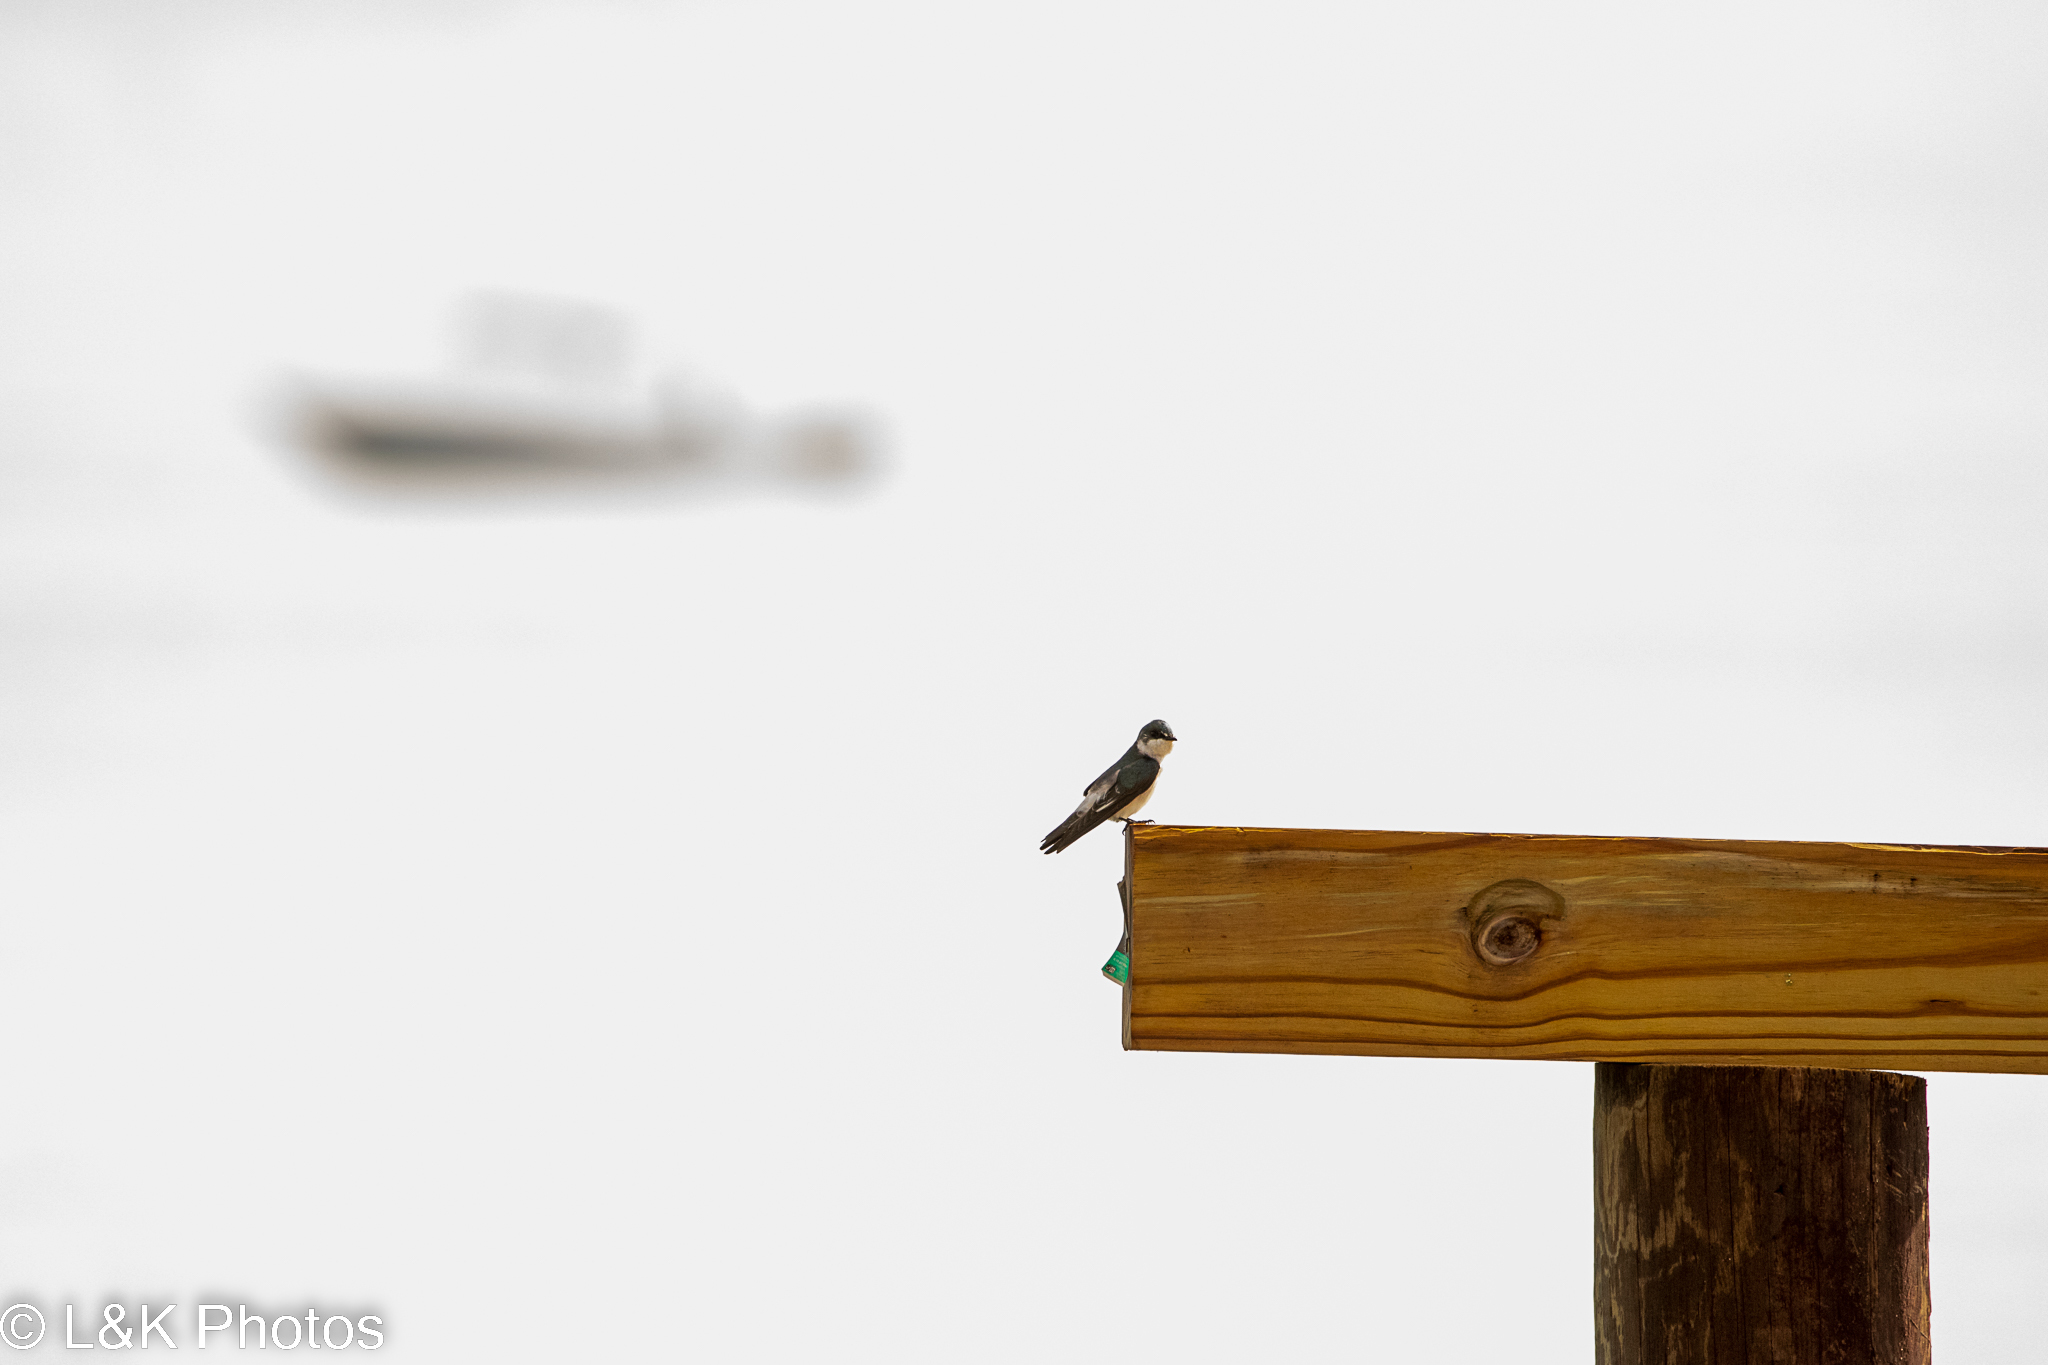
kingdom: Animalia
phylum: Chordata
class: Aves
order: Passeriformes
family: Hirundinidae
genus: Tachycineta
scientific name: Tachycineta albilinea
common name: Mangrove swallow
